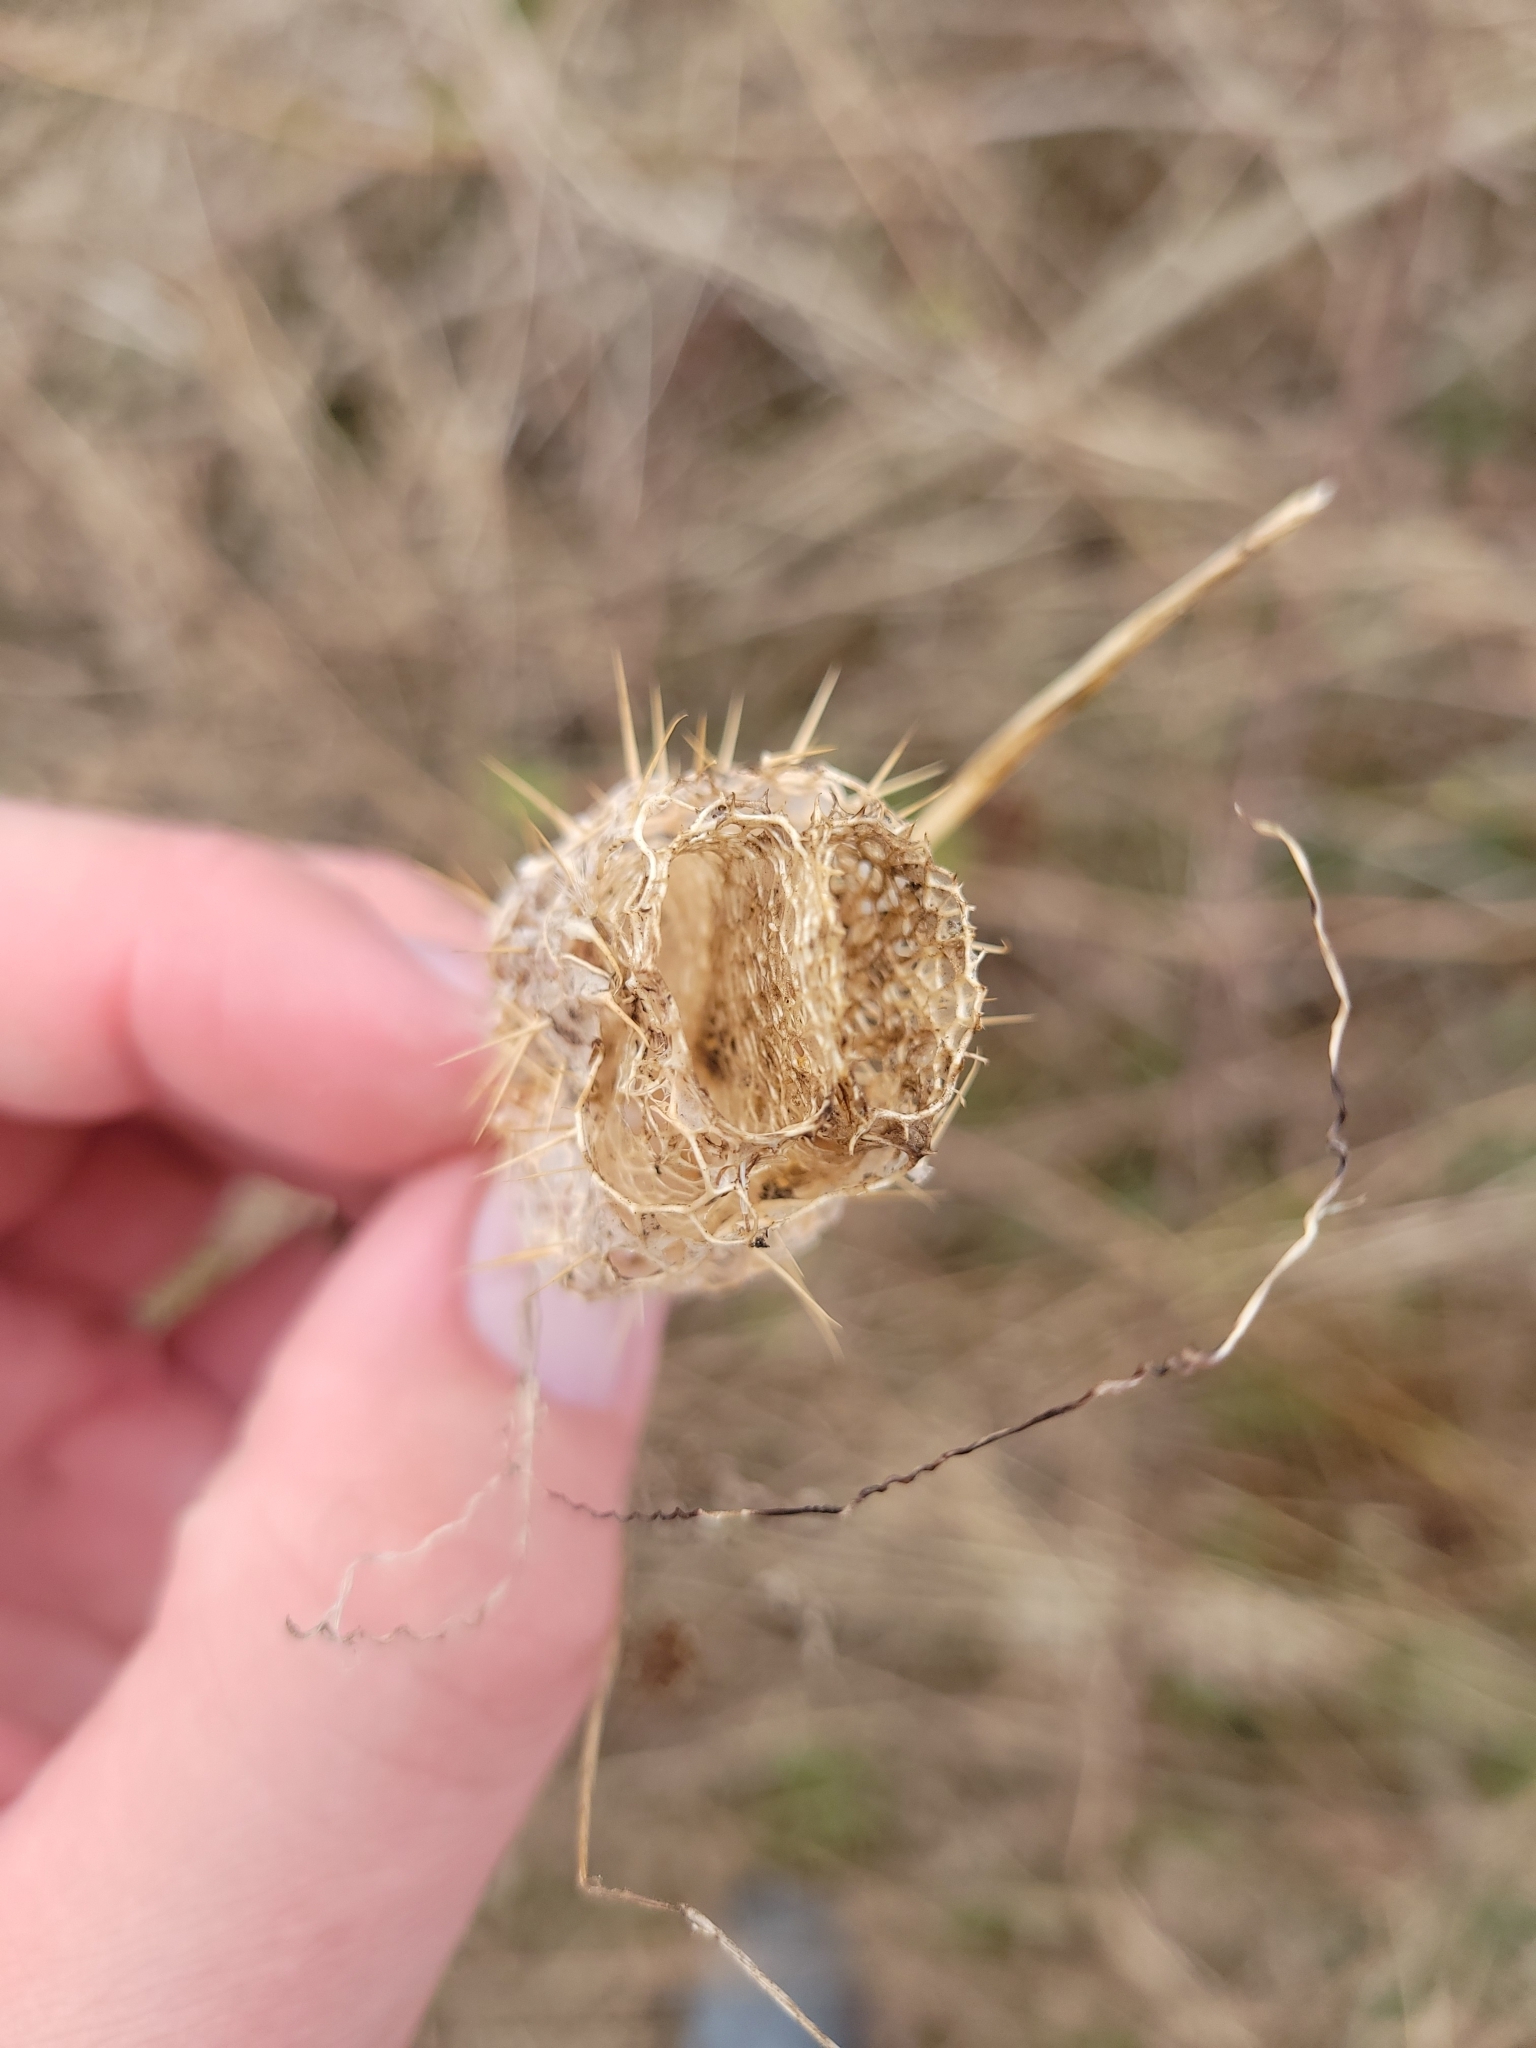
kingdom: Plantae
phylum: Tracheophyta
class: Magnoliopsida
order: Cucurbitales
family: Cucurbitaceae
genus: Echinocystis
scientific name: Echinocystis lobata
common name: Wild cucumber
